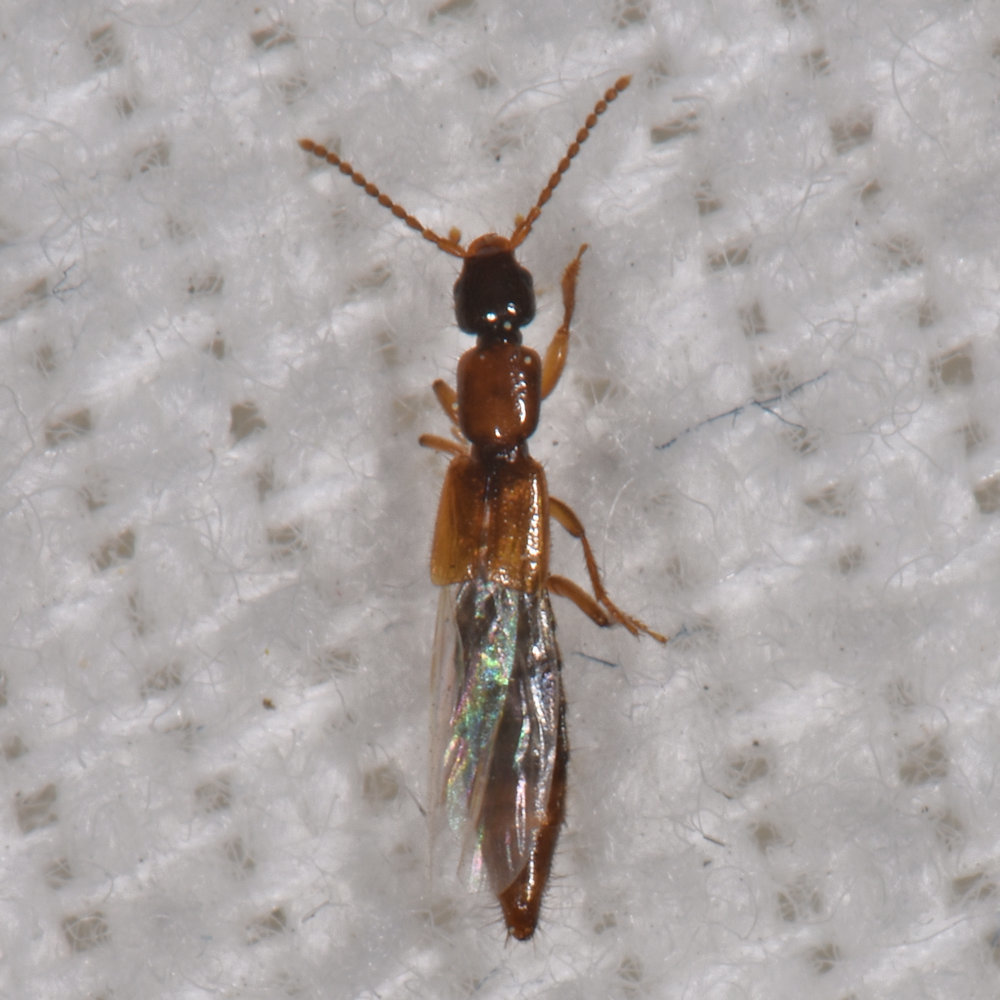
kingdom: Animalia
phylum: Arthropoda
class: Insecta
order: Coleoptera
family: Staphylinidae
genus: Pseudolathra
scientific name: Pseudolathra collaris
